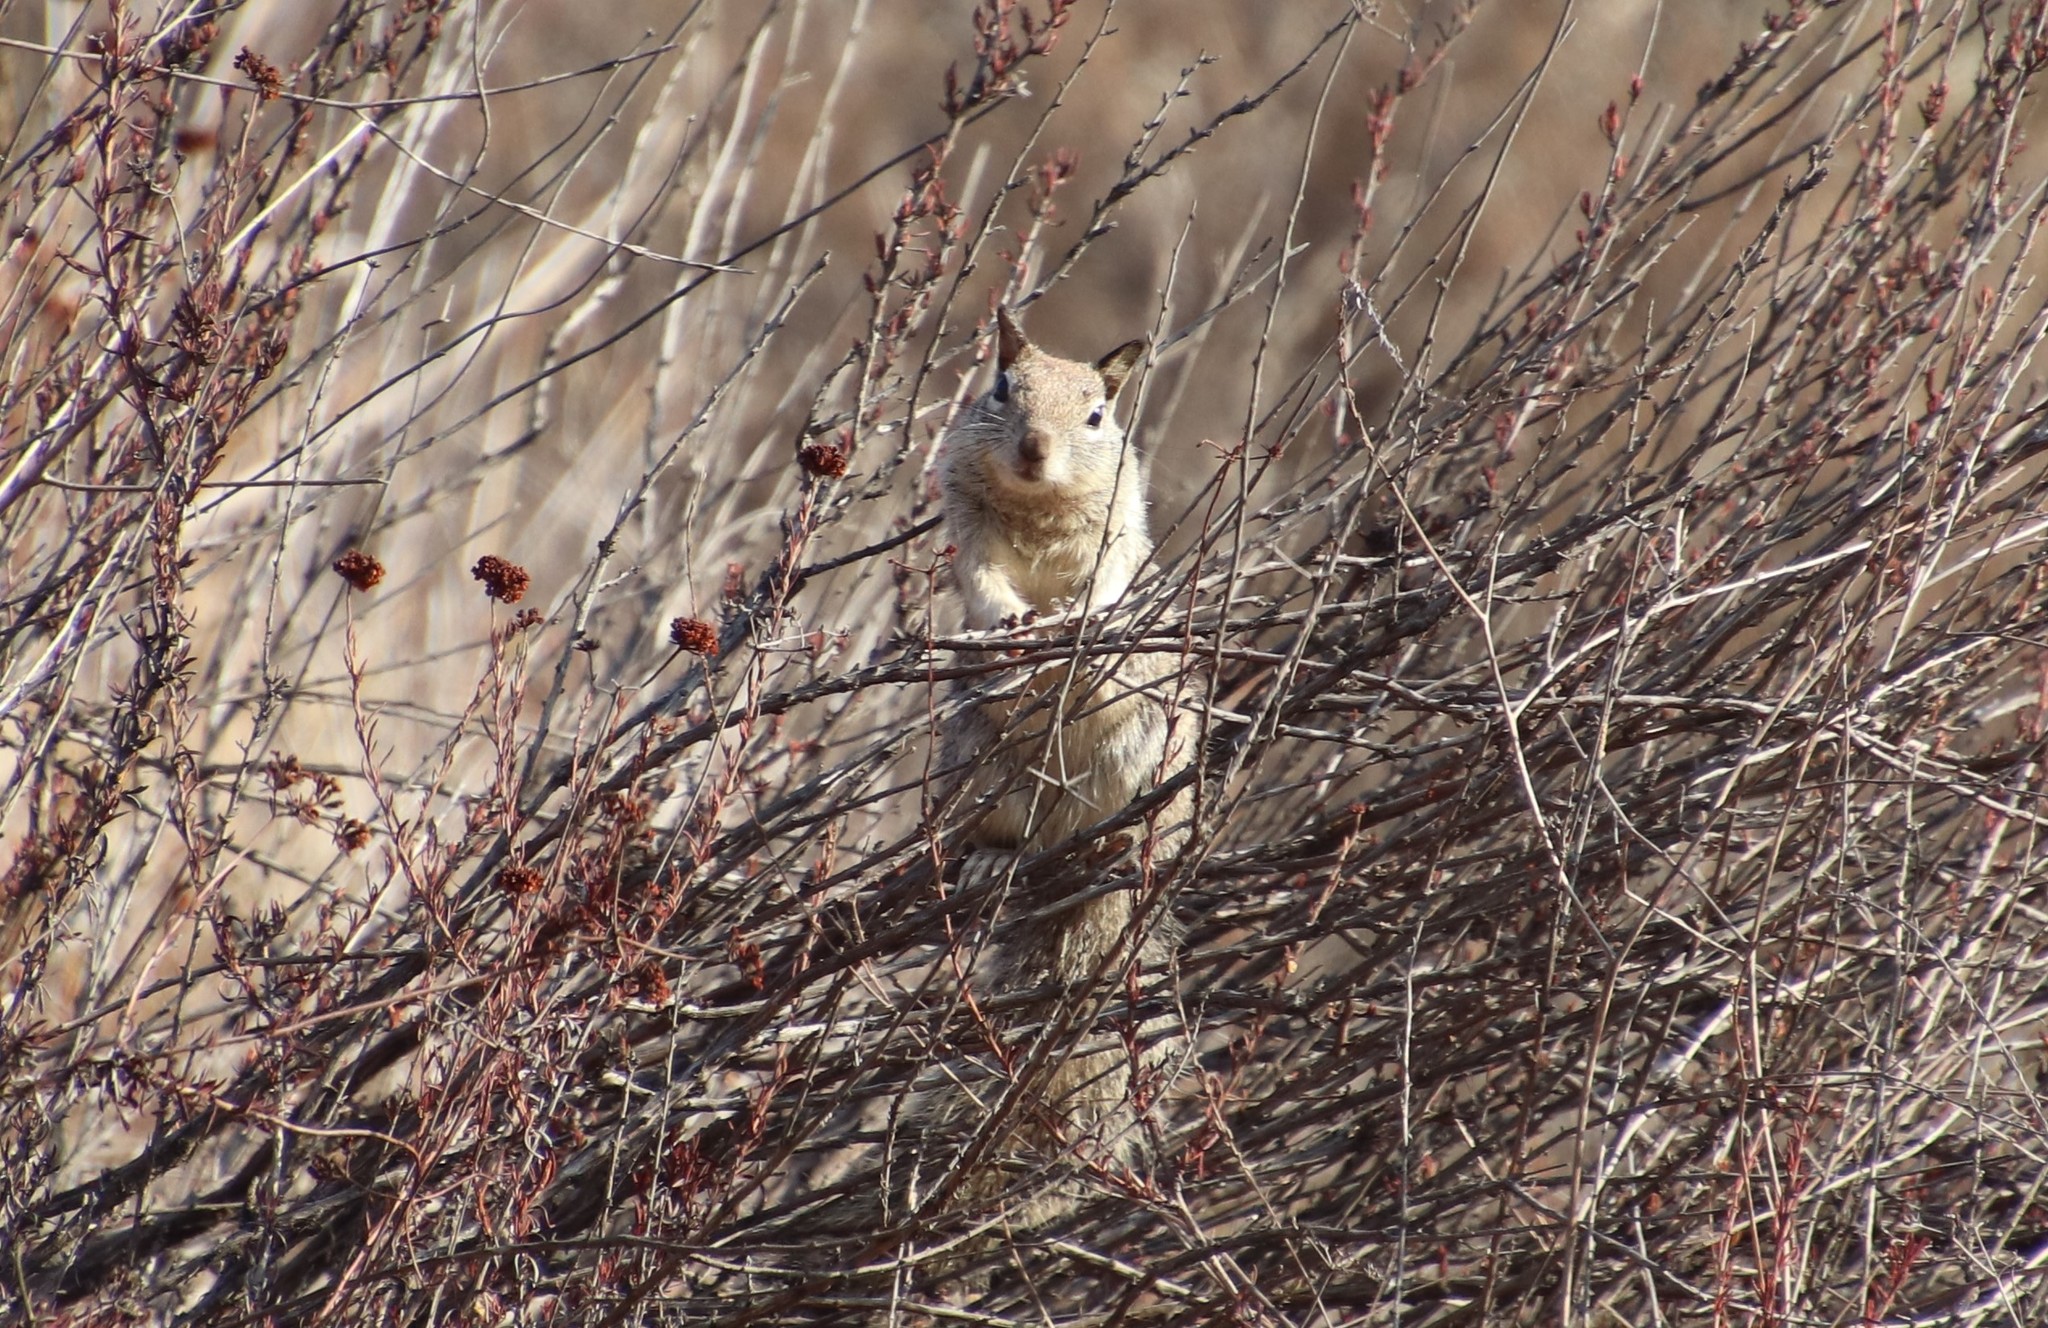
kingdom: Animalia
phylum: Chordata
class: Mammalia
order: Rodentia
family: Sciuridae
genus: Otospermophilus
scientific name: Otospermophilus beecheyi
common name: California ground squirrel
